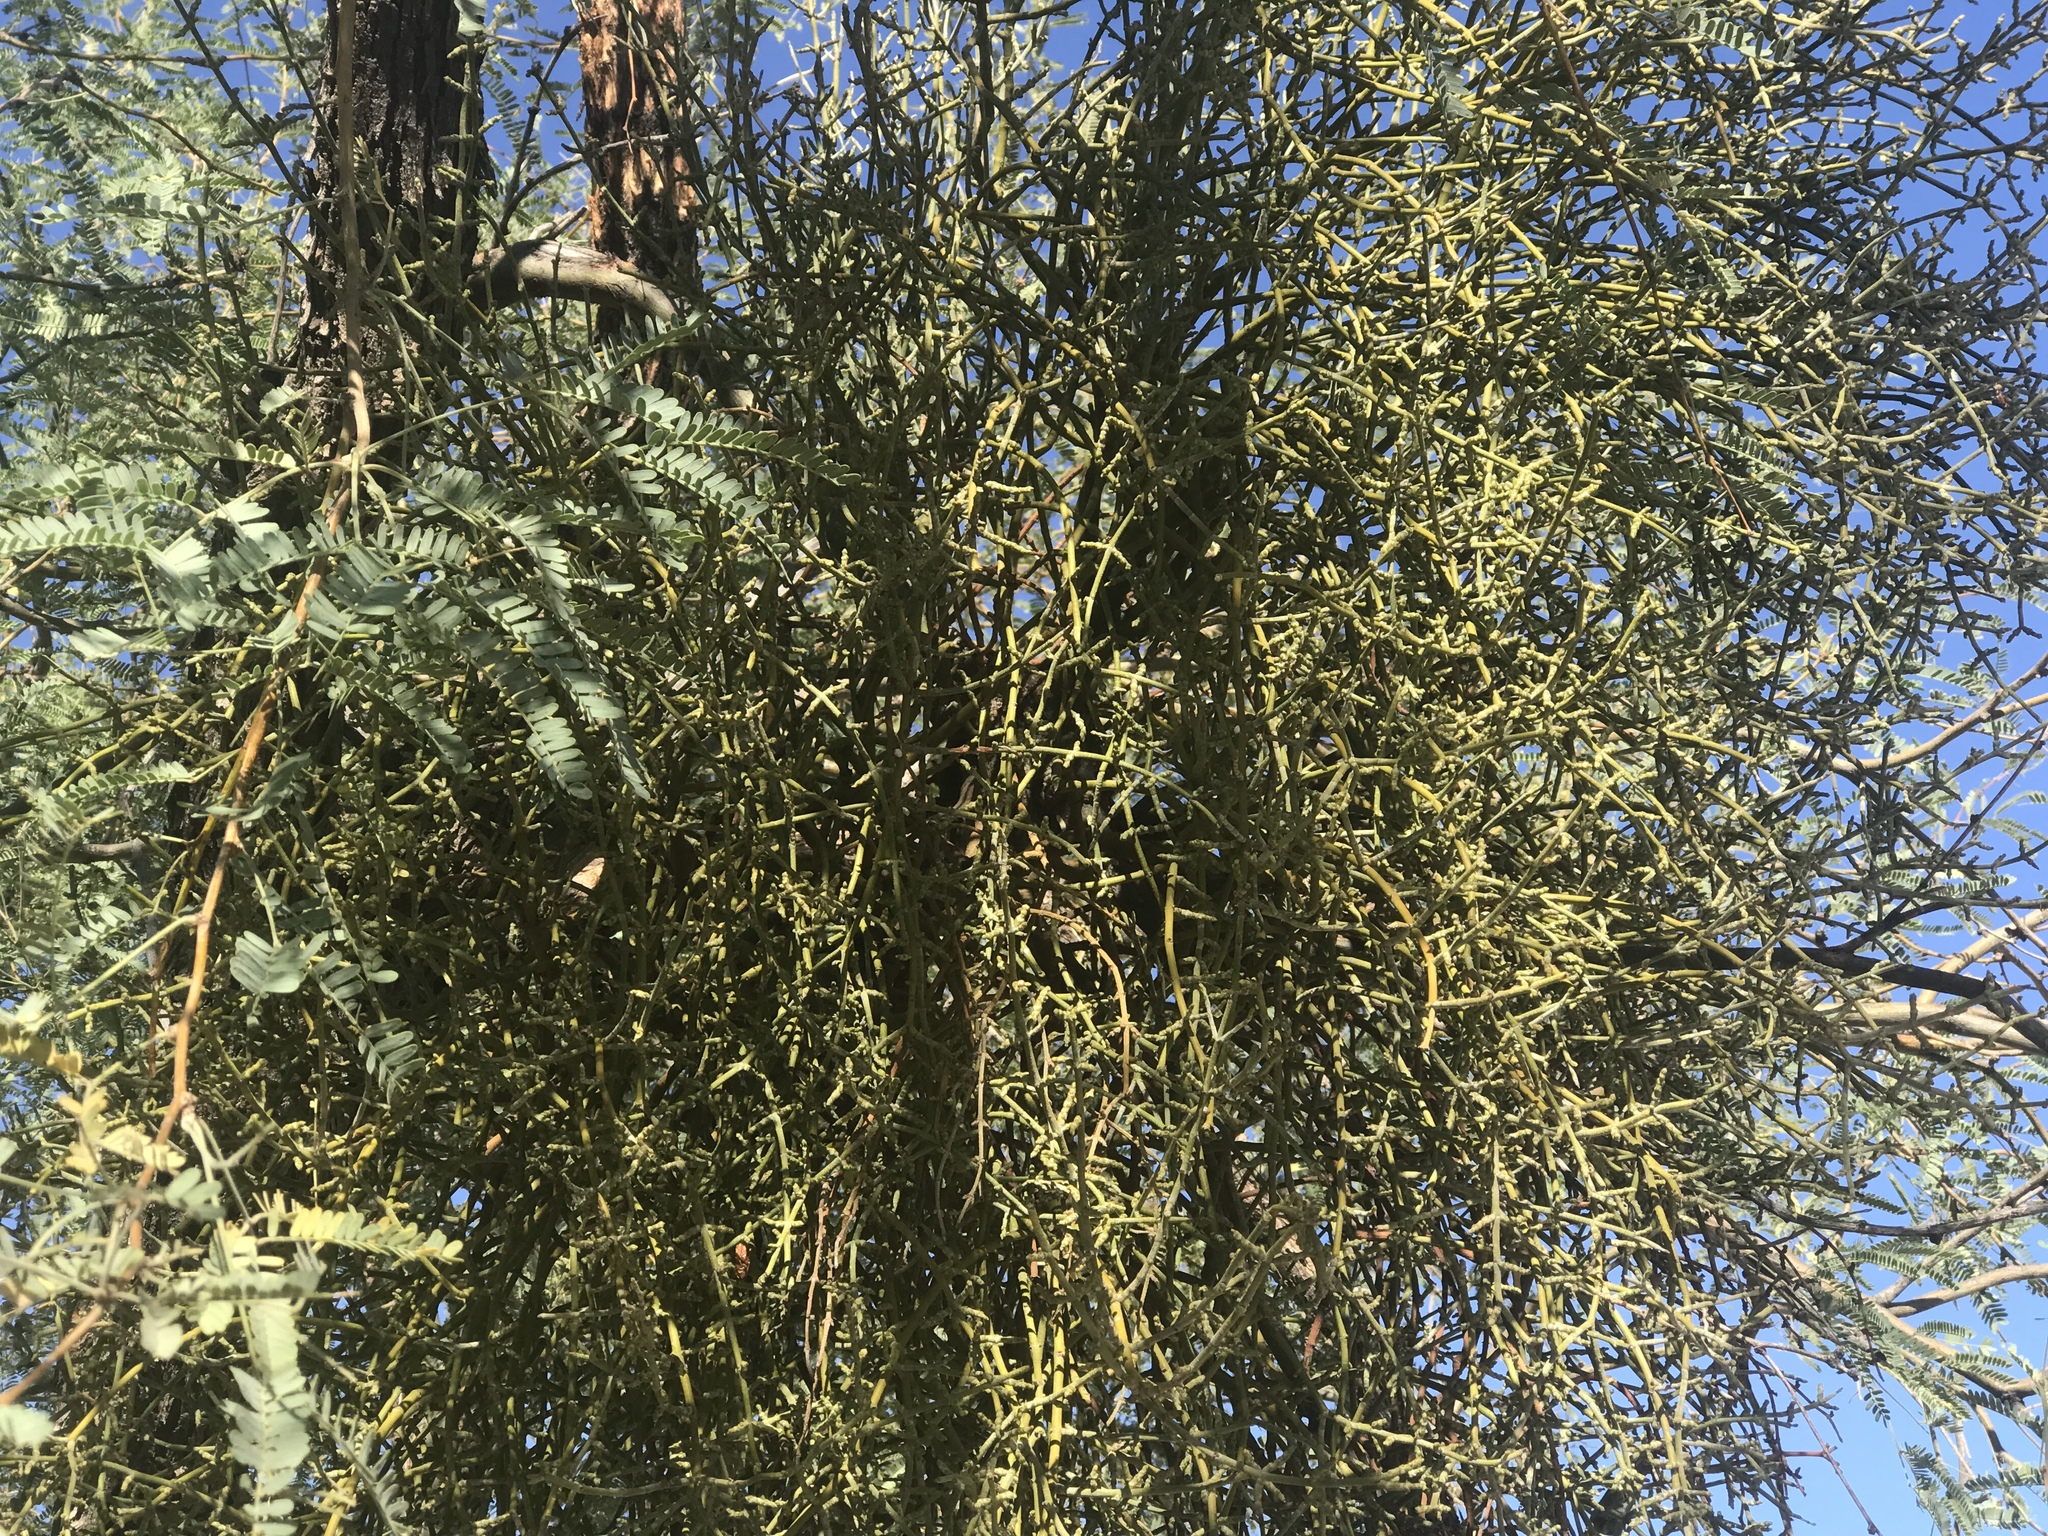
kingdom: Plantae
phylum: Tracheophyta
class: Magnoliopsida
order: Santalales
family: Viscaceae
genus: Phoradendron
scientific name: Phoradendron californicum
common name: Acacia mistletoe
